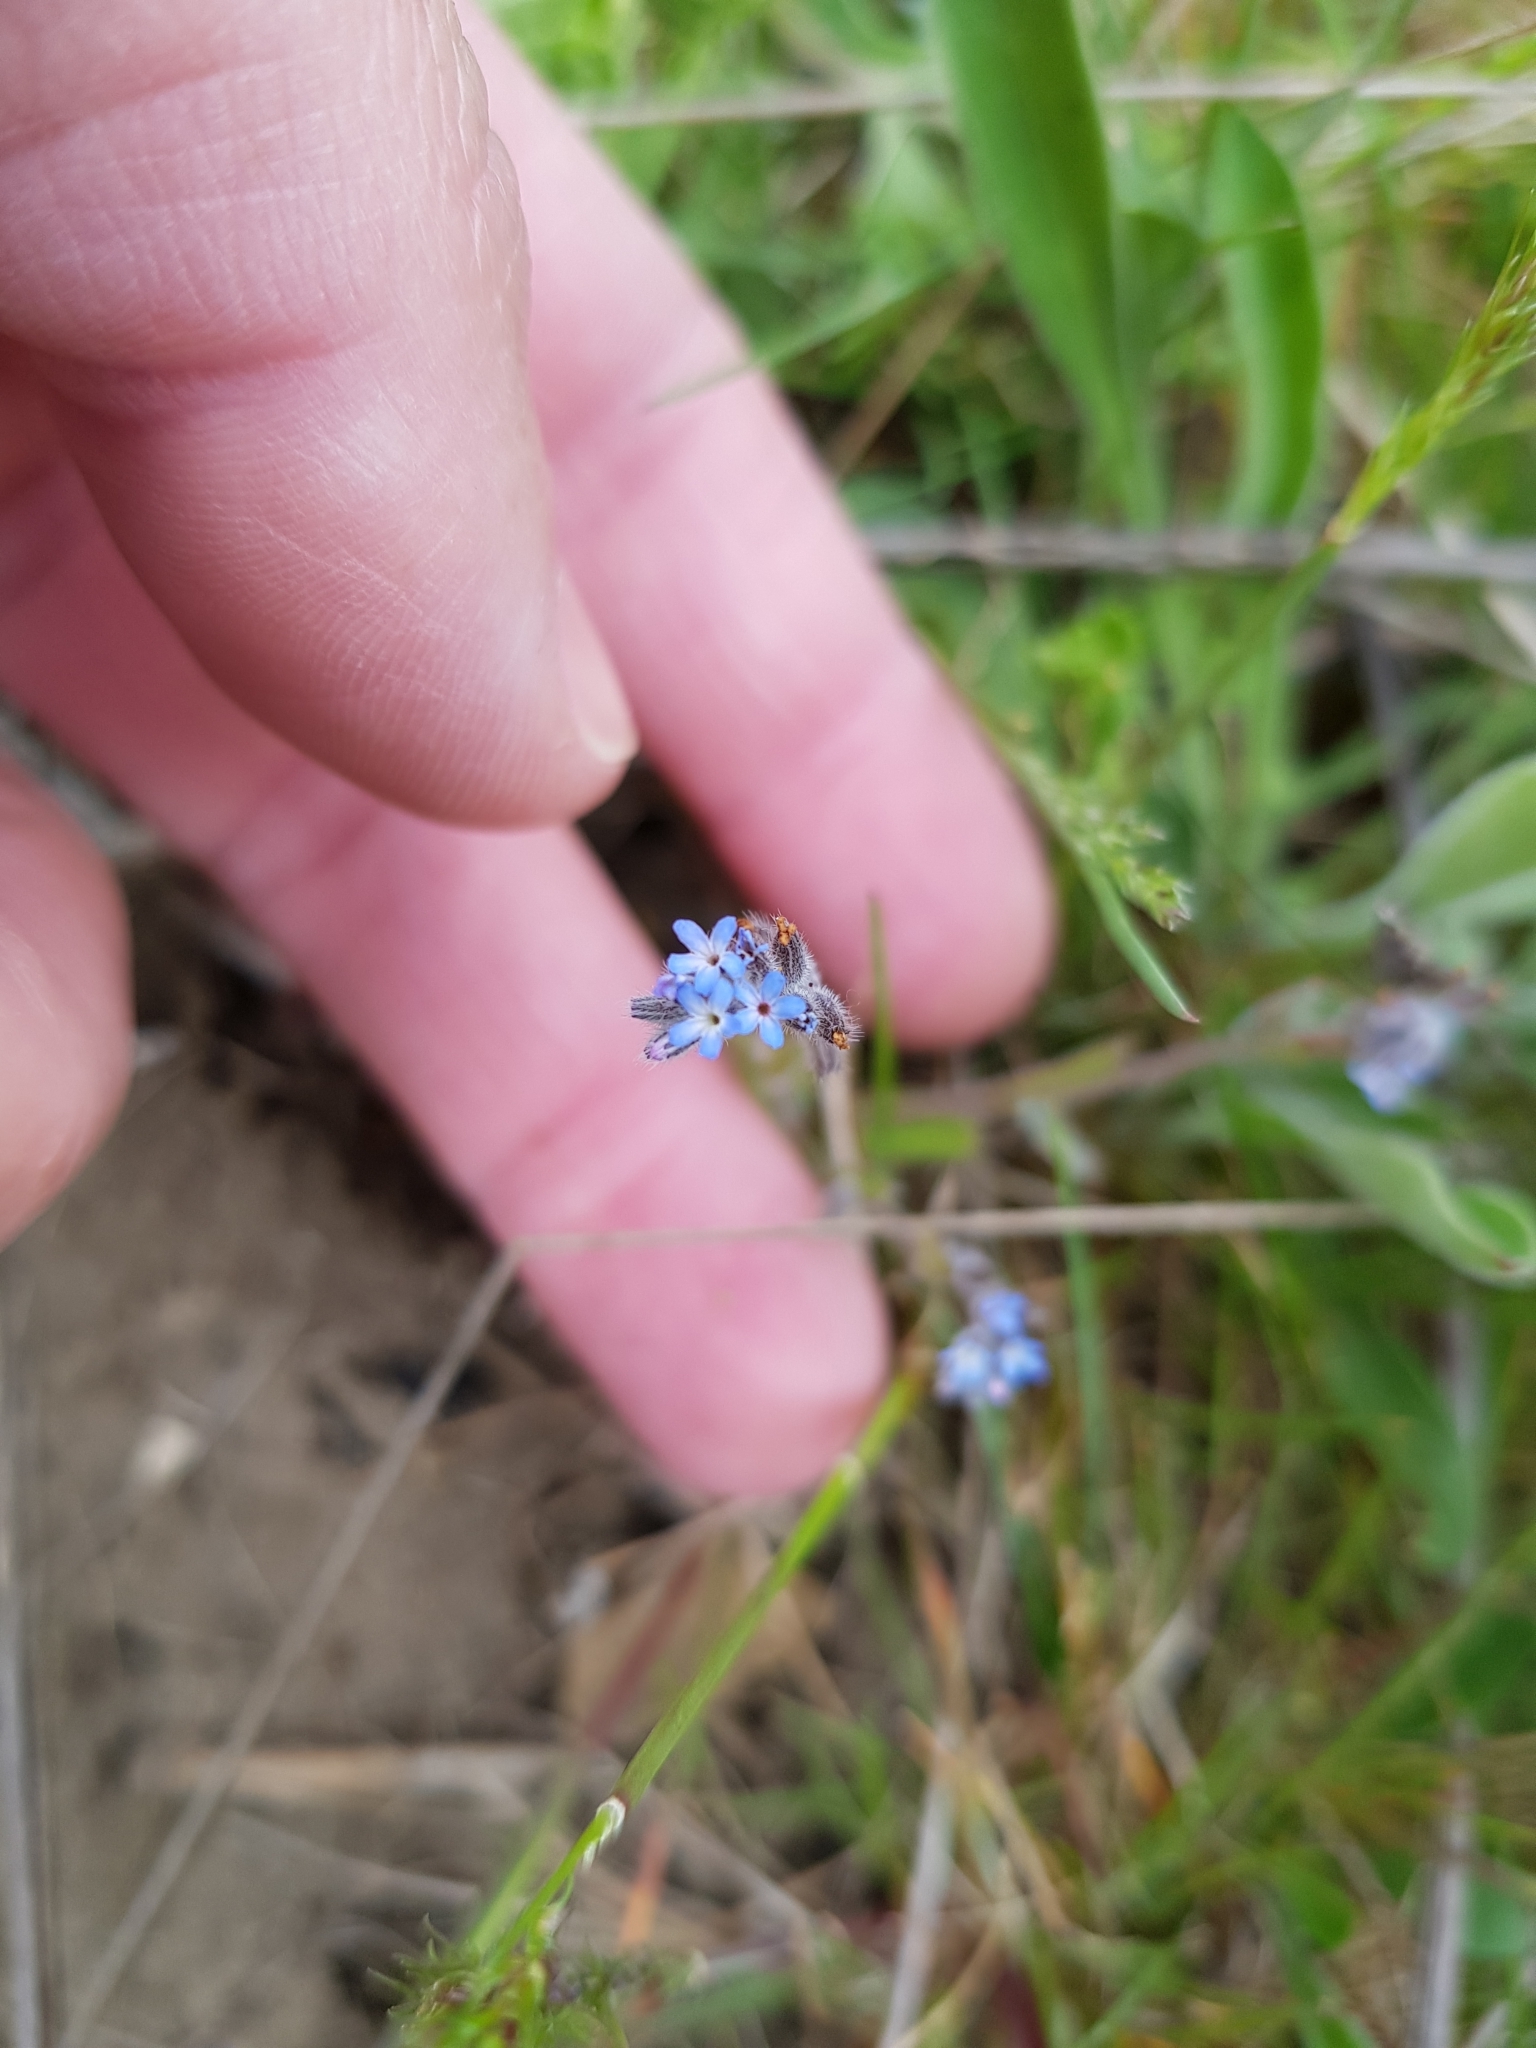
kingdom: Plantae
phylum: Tracheophyta
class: Magnoliopsida
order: Boraginales
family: Boraginaceae
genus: Myosotis
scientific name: Myosotis stricta
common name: Strict forget-me-not
